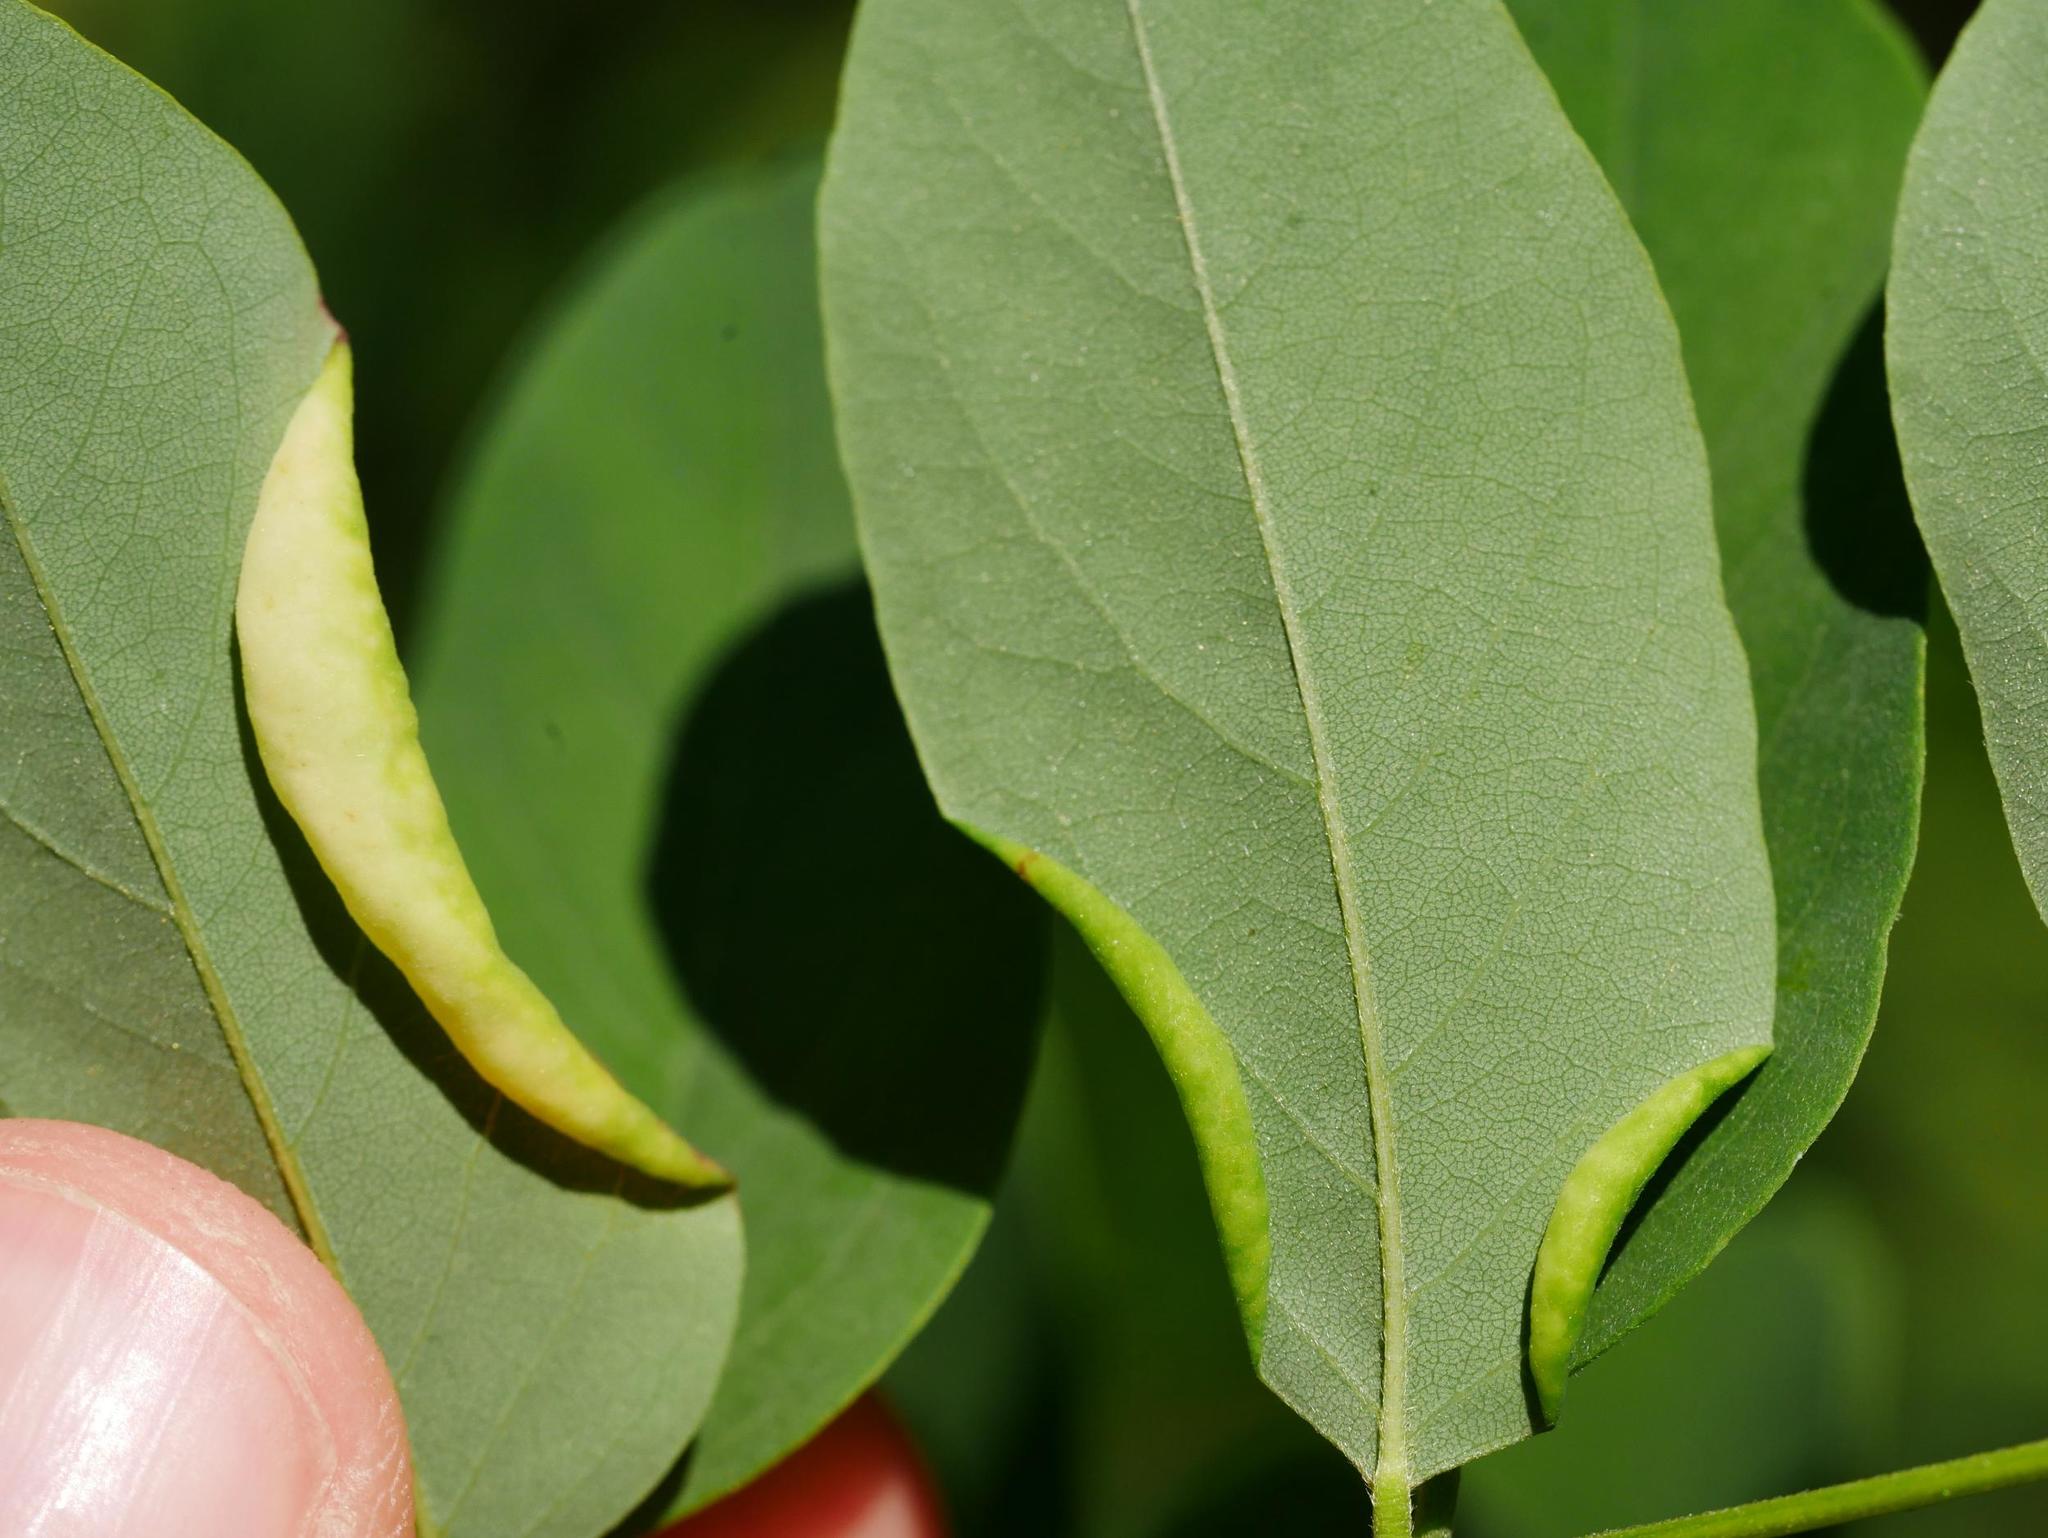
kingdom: Animalia
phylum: Arthropoda
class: Insecta
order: Diptera
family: Cecidomyiidae
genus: Obolodiplosis
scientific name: Obolodiplosis robiniae
